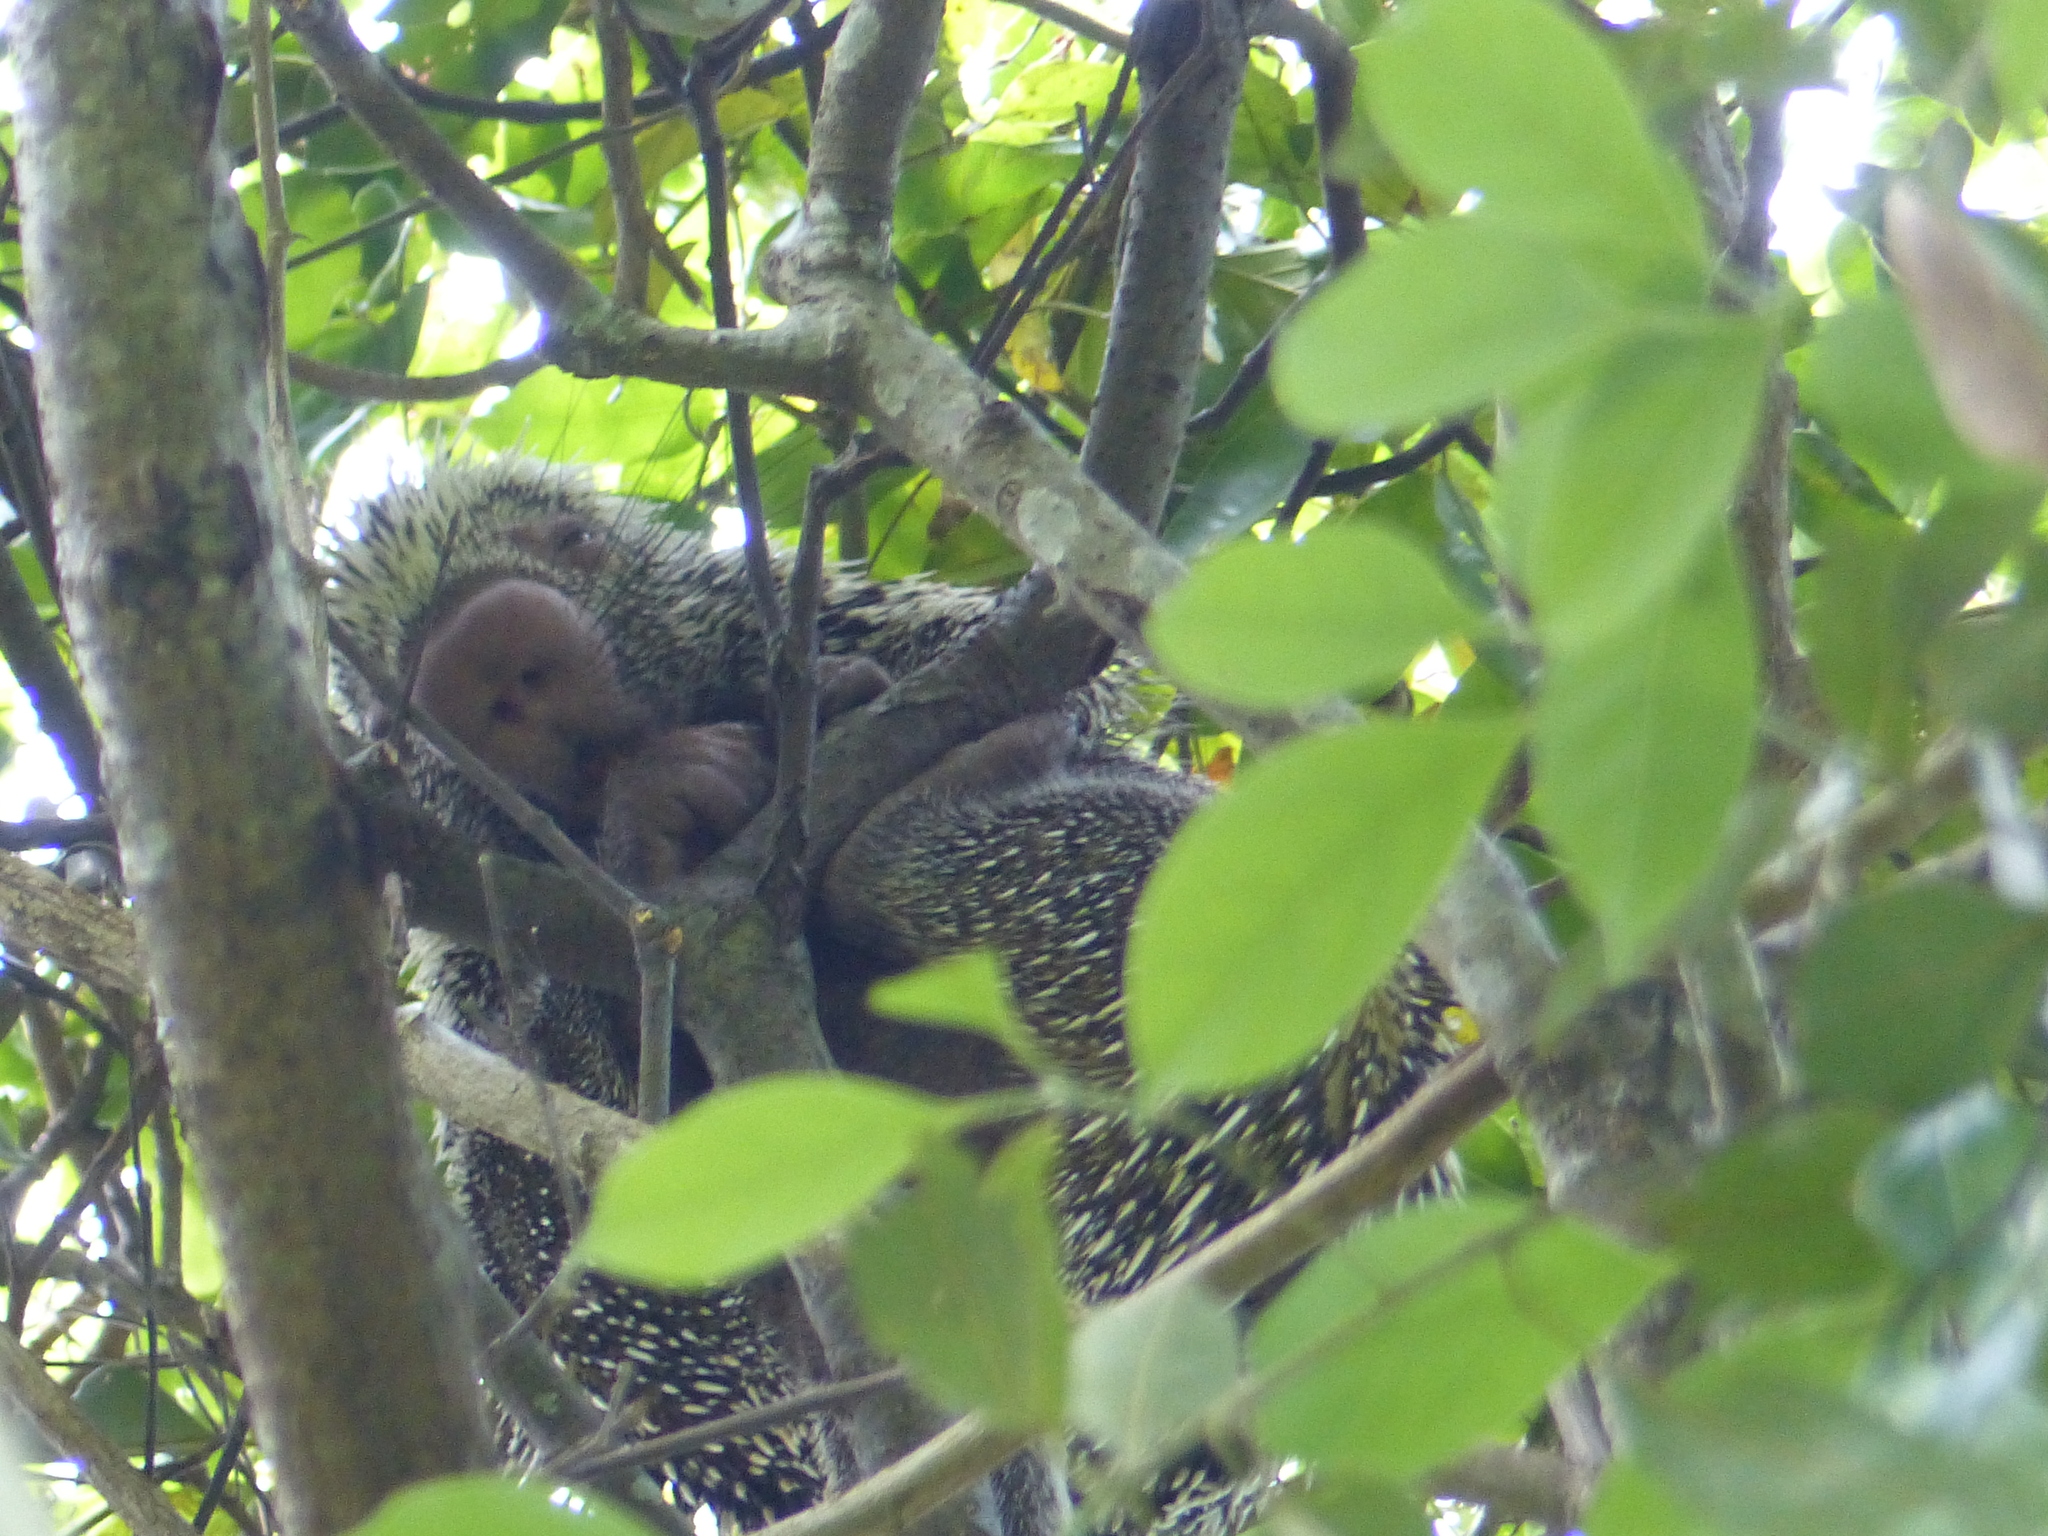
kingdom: Animalia
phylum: Chordata
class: Mammalia
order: Rodentia
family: Erethizontidae
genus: Coendou
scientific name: Coendou longicaudatus
